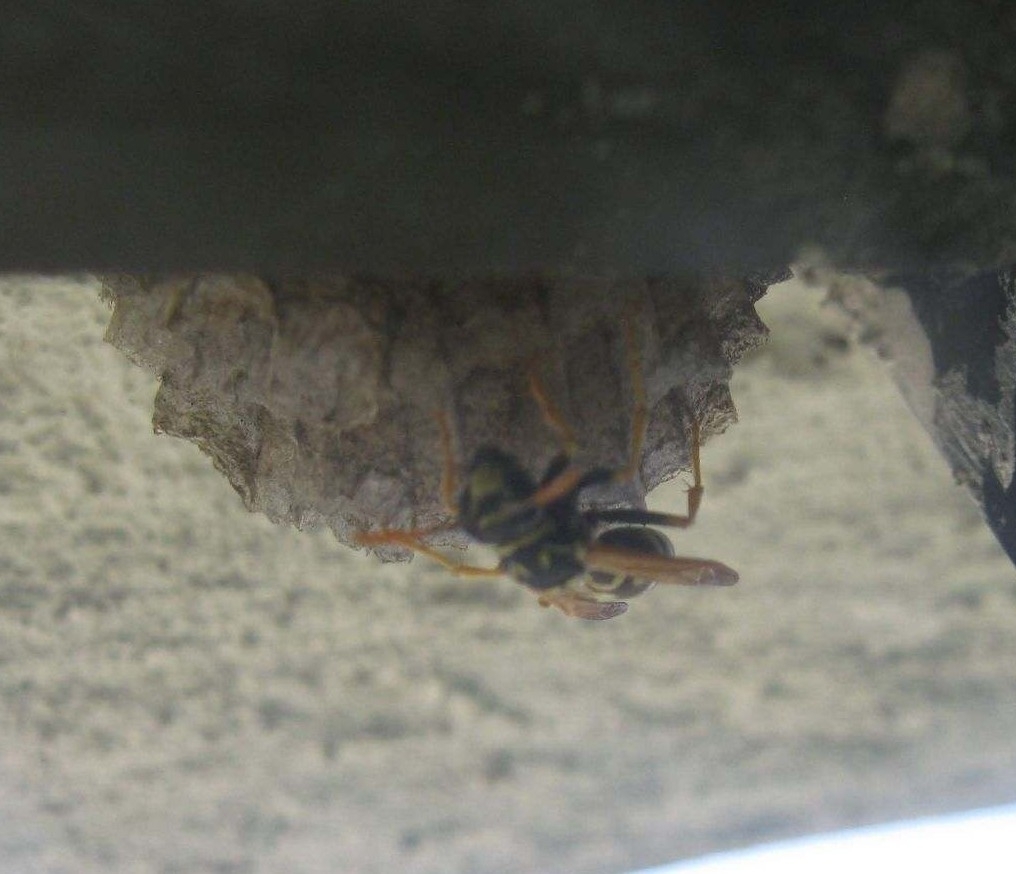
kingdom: Animalia
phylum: Arthropoda
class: Insecta
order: Hymenoptera
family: Eumenidae
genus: Polistes
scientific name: Polistes dominula
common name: Paper wasp
